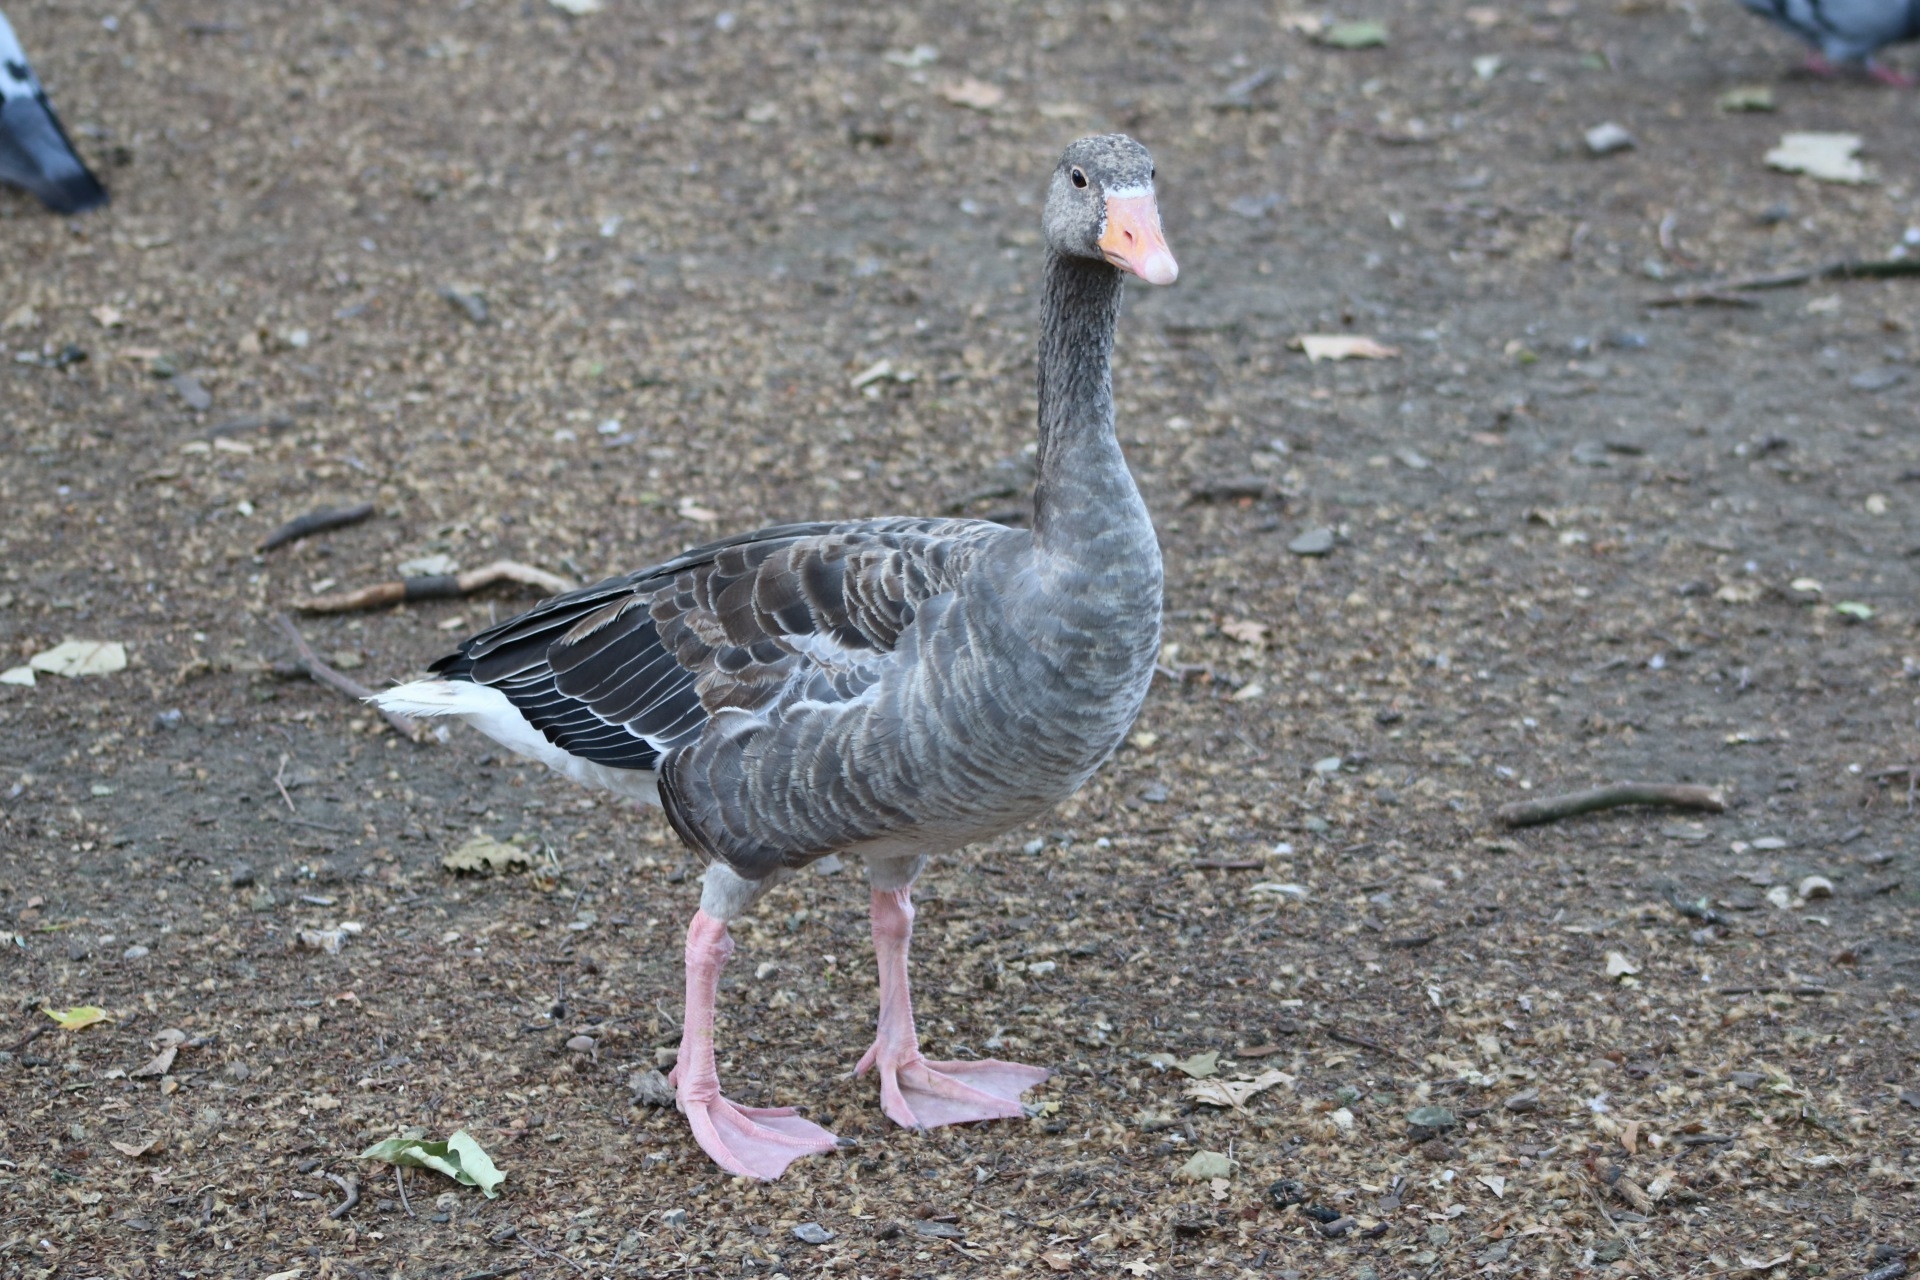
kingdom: Animalia
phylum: Chordata
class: Aves
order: Anseriformes
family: Anatidae
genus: Anser
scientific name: Anser anser
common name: Greylag goose
